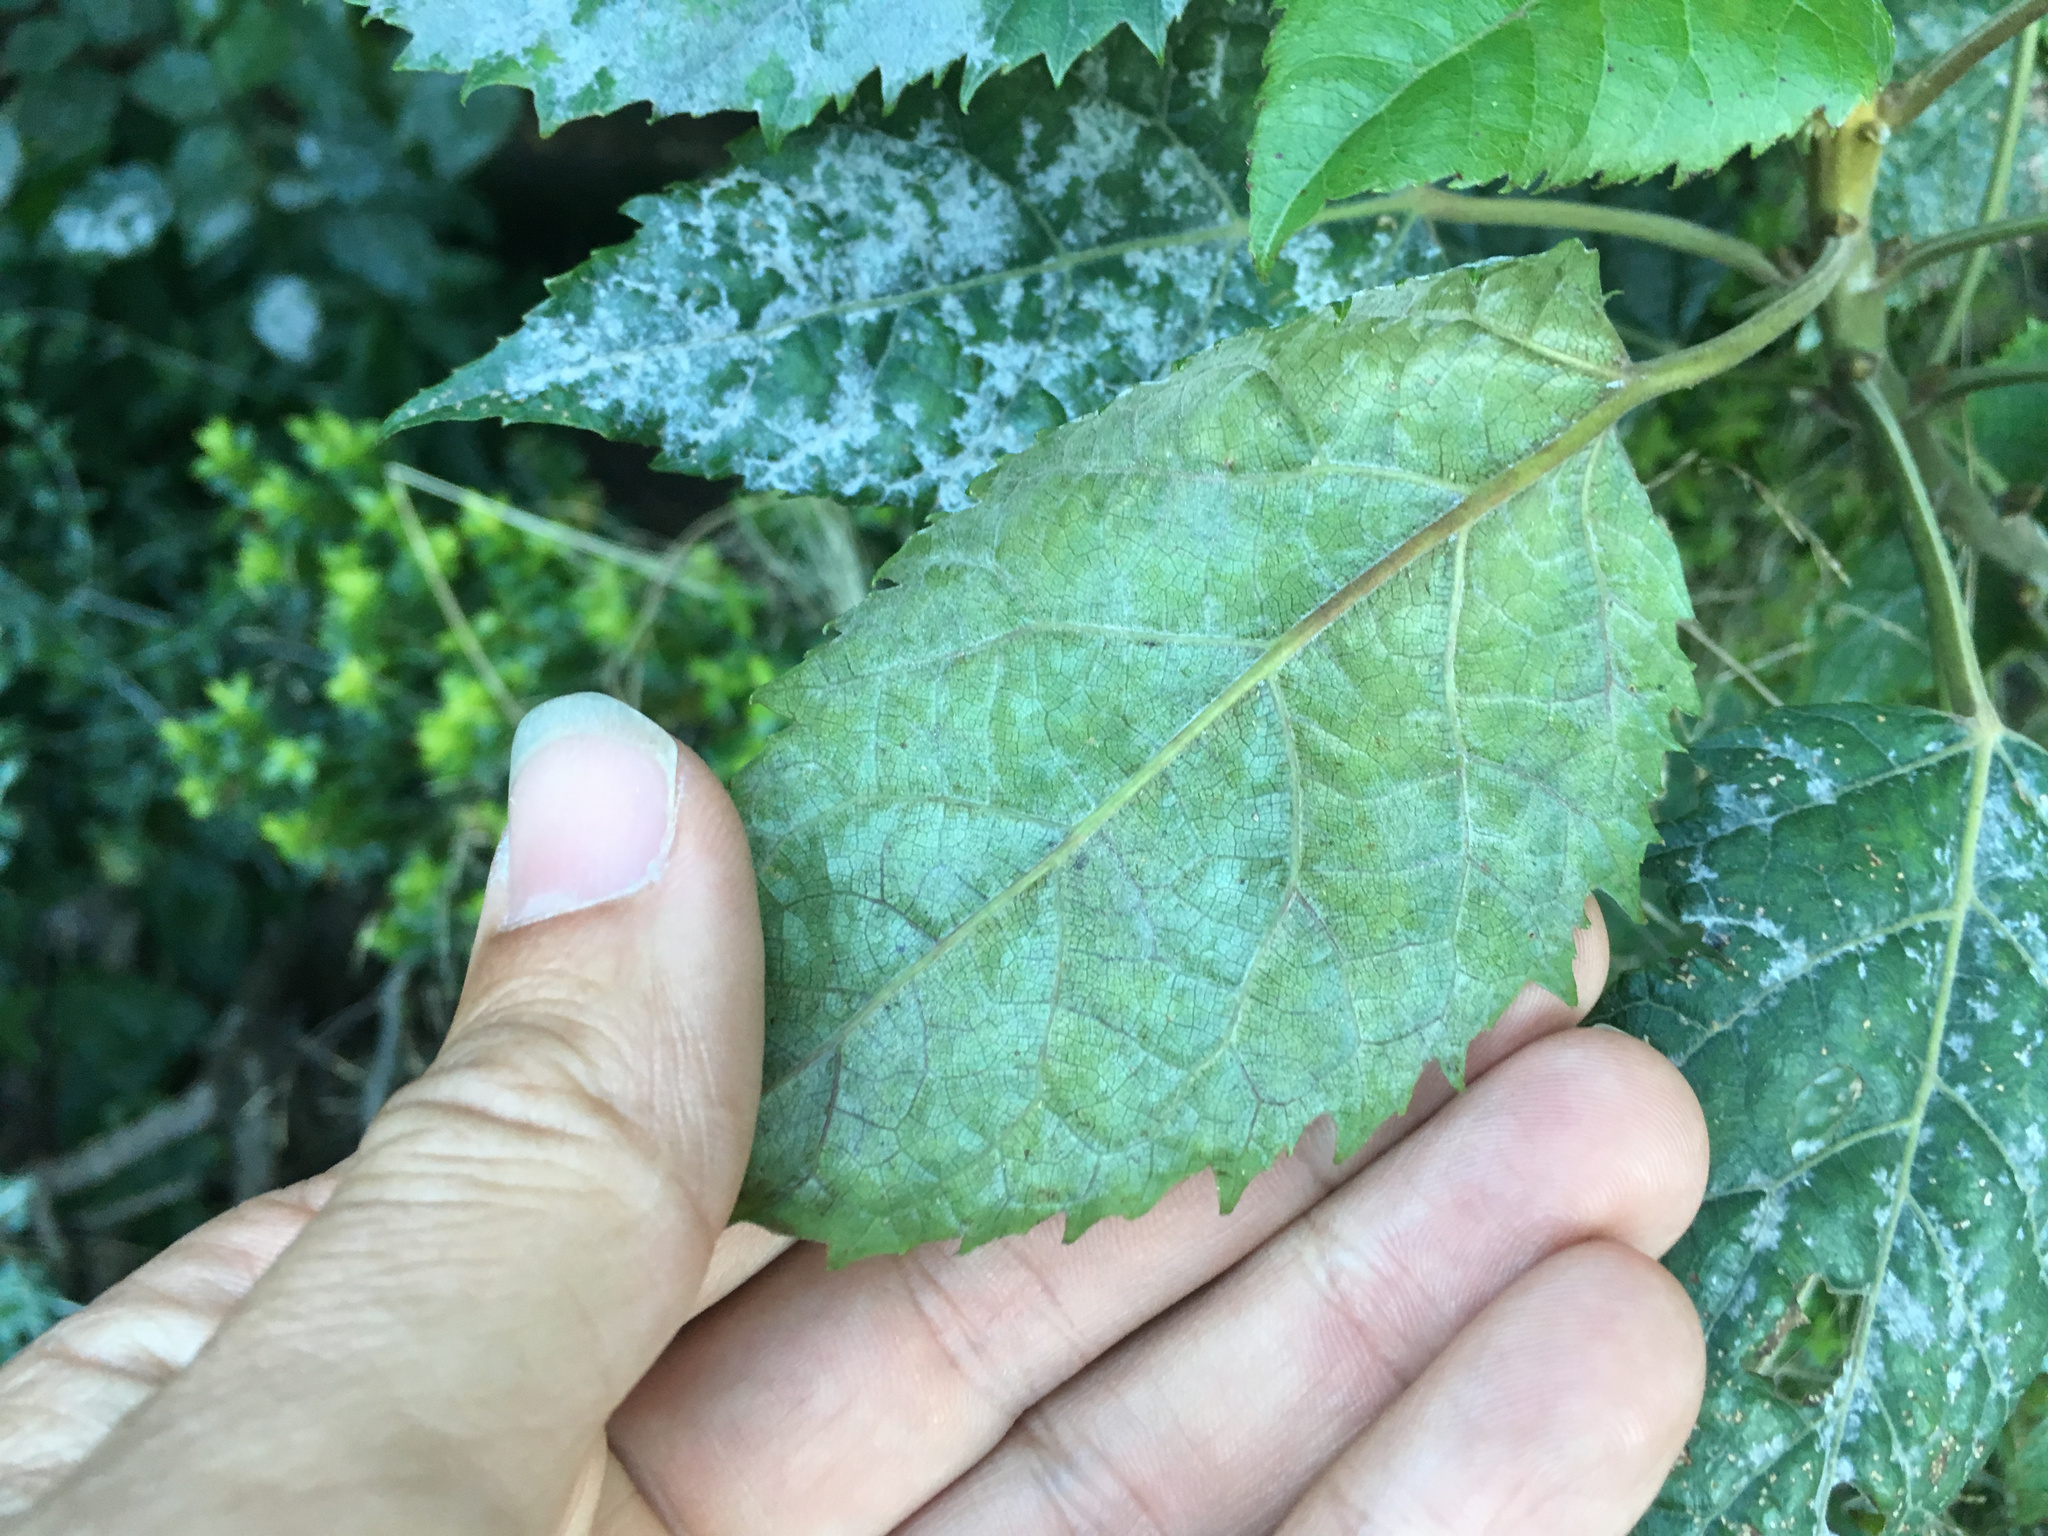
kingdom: Fungi
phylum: Ascomycota
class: Leotiomycetes
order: Helotiales
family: Erysiphaceae
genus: Erysiphe
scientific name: Erysiphe densa
